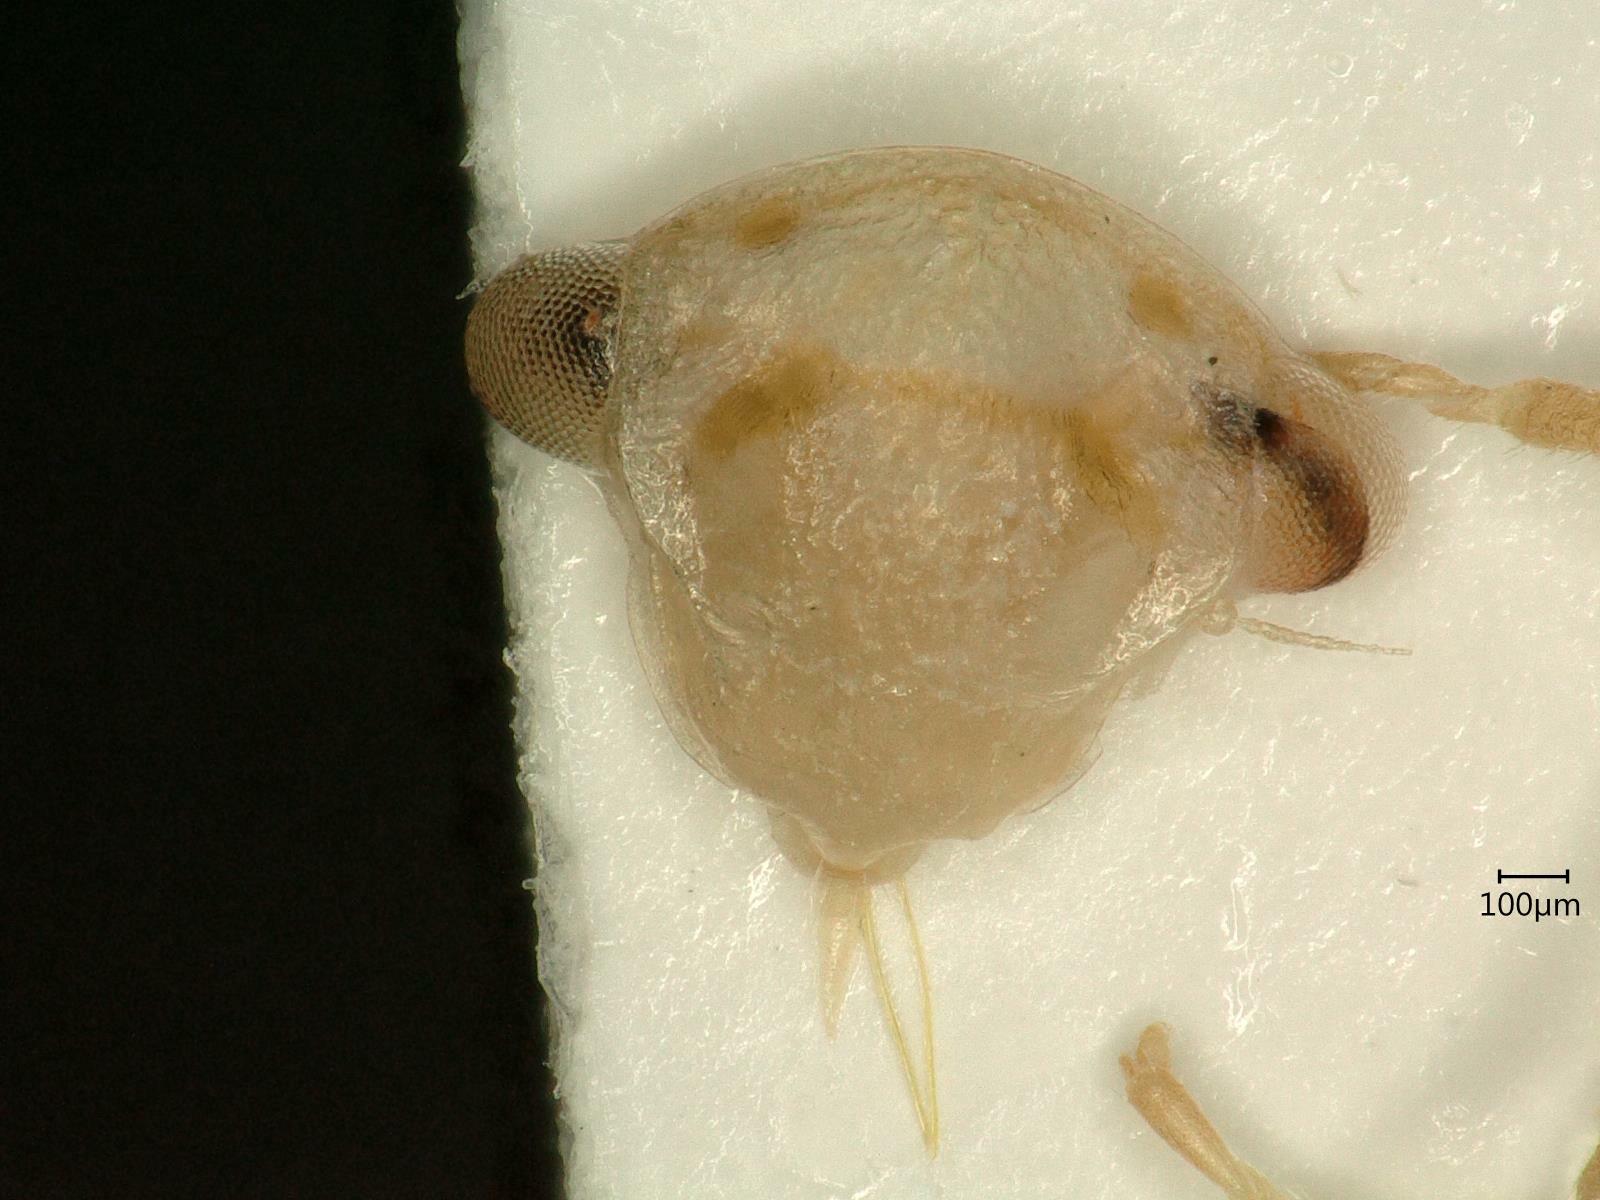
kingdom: Animalia
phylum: Arthropoda
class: Insecta
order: Hemiptera
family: Cicadellidae
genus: Oncopsis
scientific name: Oncopsis flavicollis
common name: Leafhopper
